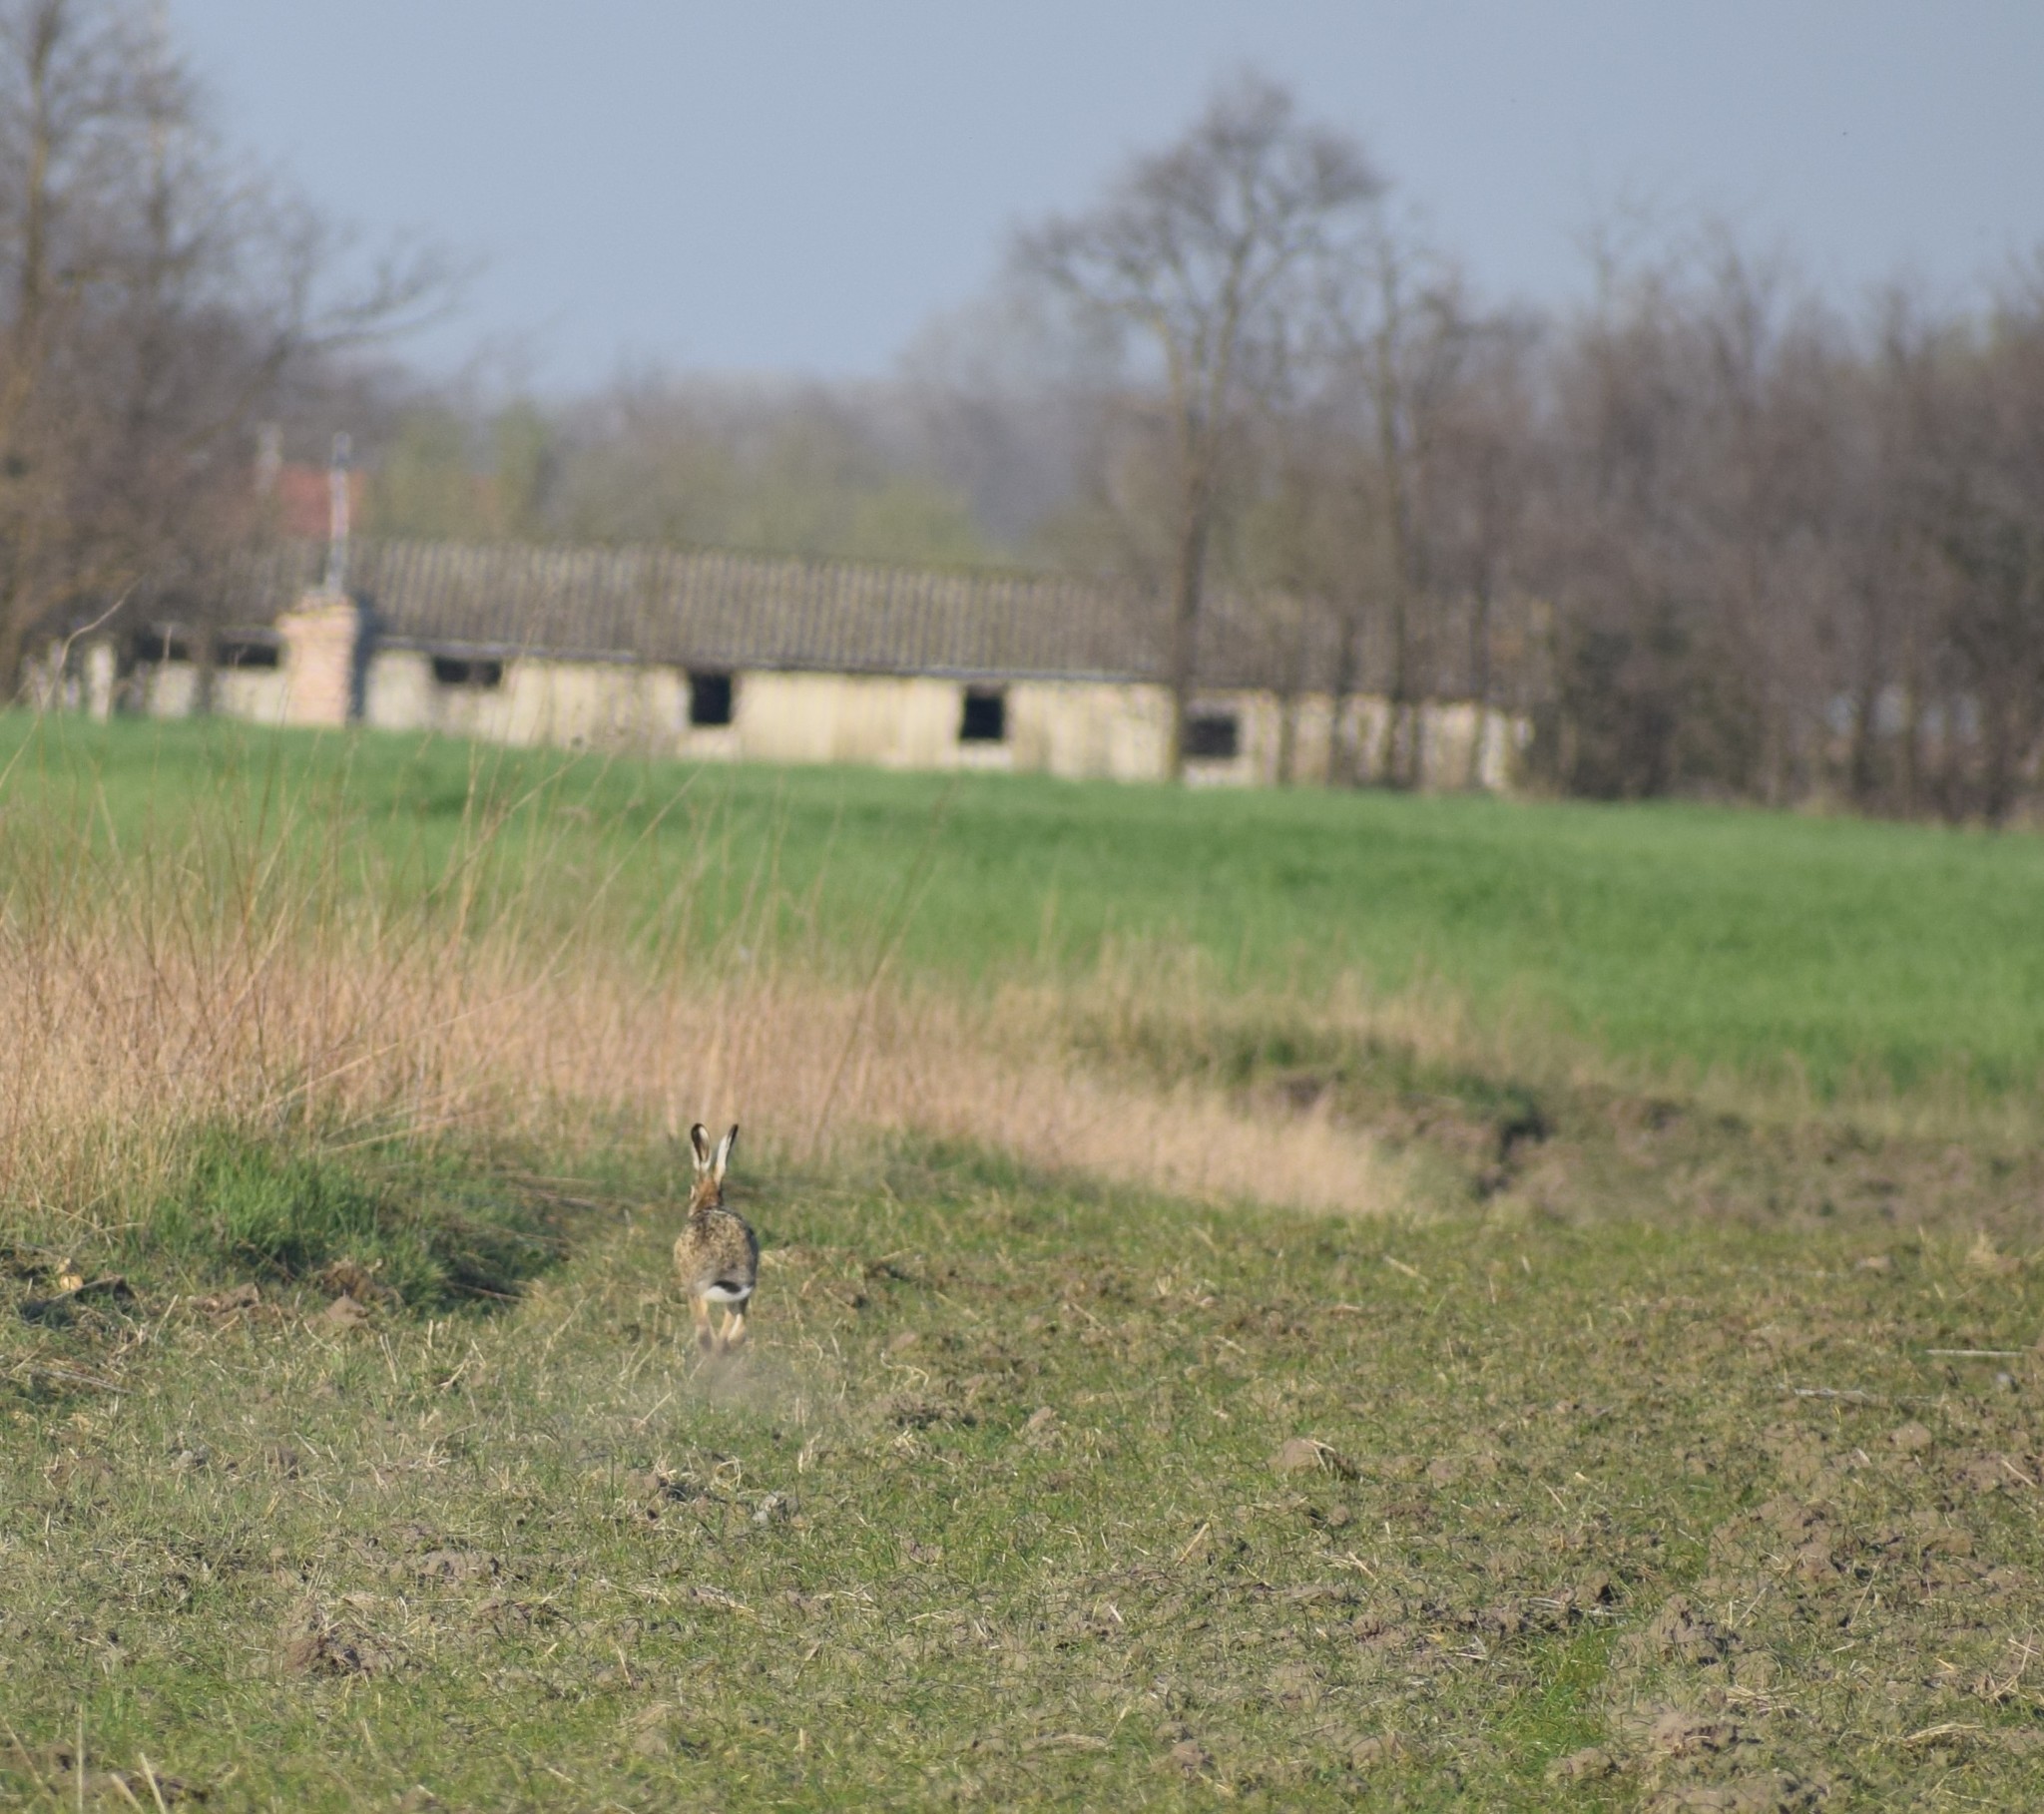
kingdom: Animalia
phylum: Chordata
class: Mammalia
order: Lagomorpha
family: Leporidae
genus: Lepus
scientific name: Lepus europaeus
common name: European hare
